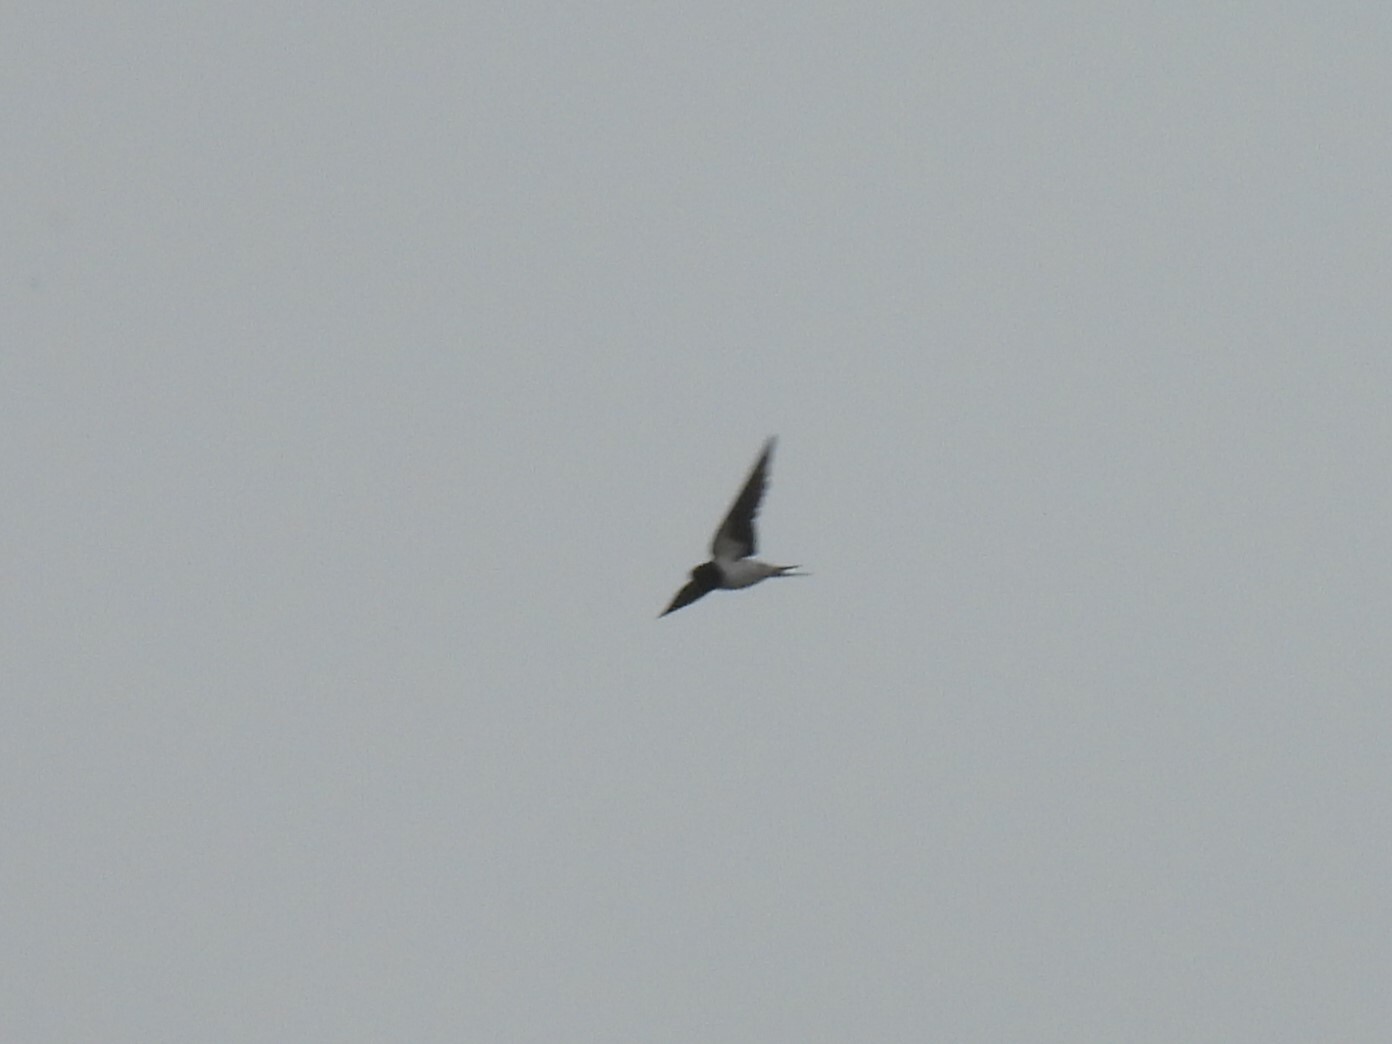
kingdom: Animalia
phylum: Chordata
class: Aves
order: Passeriformes
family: Hirundinidae
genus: Hirundo
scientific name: Hirundo rustica
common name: Barn swallow
